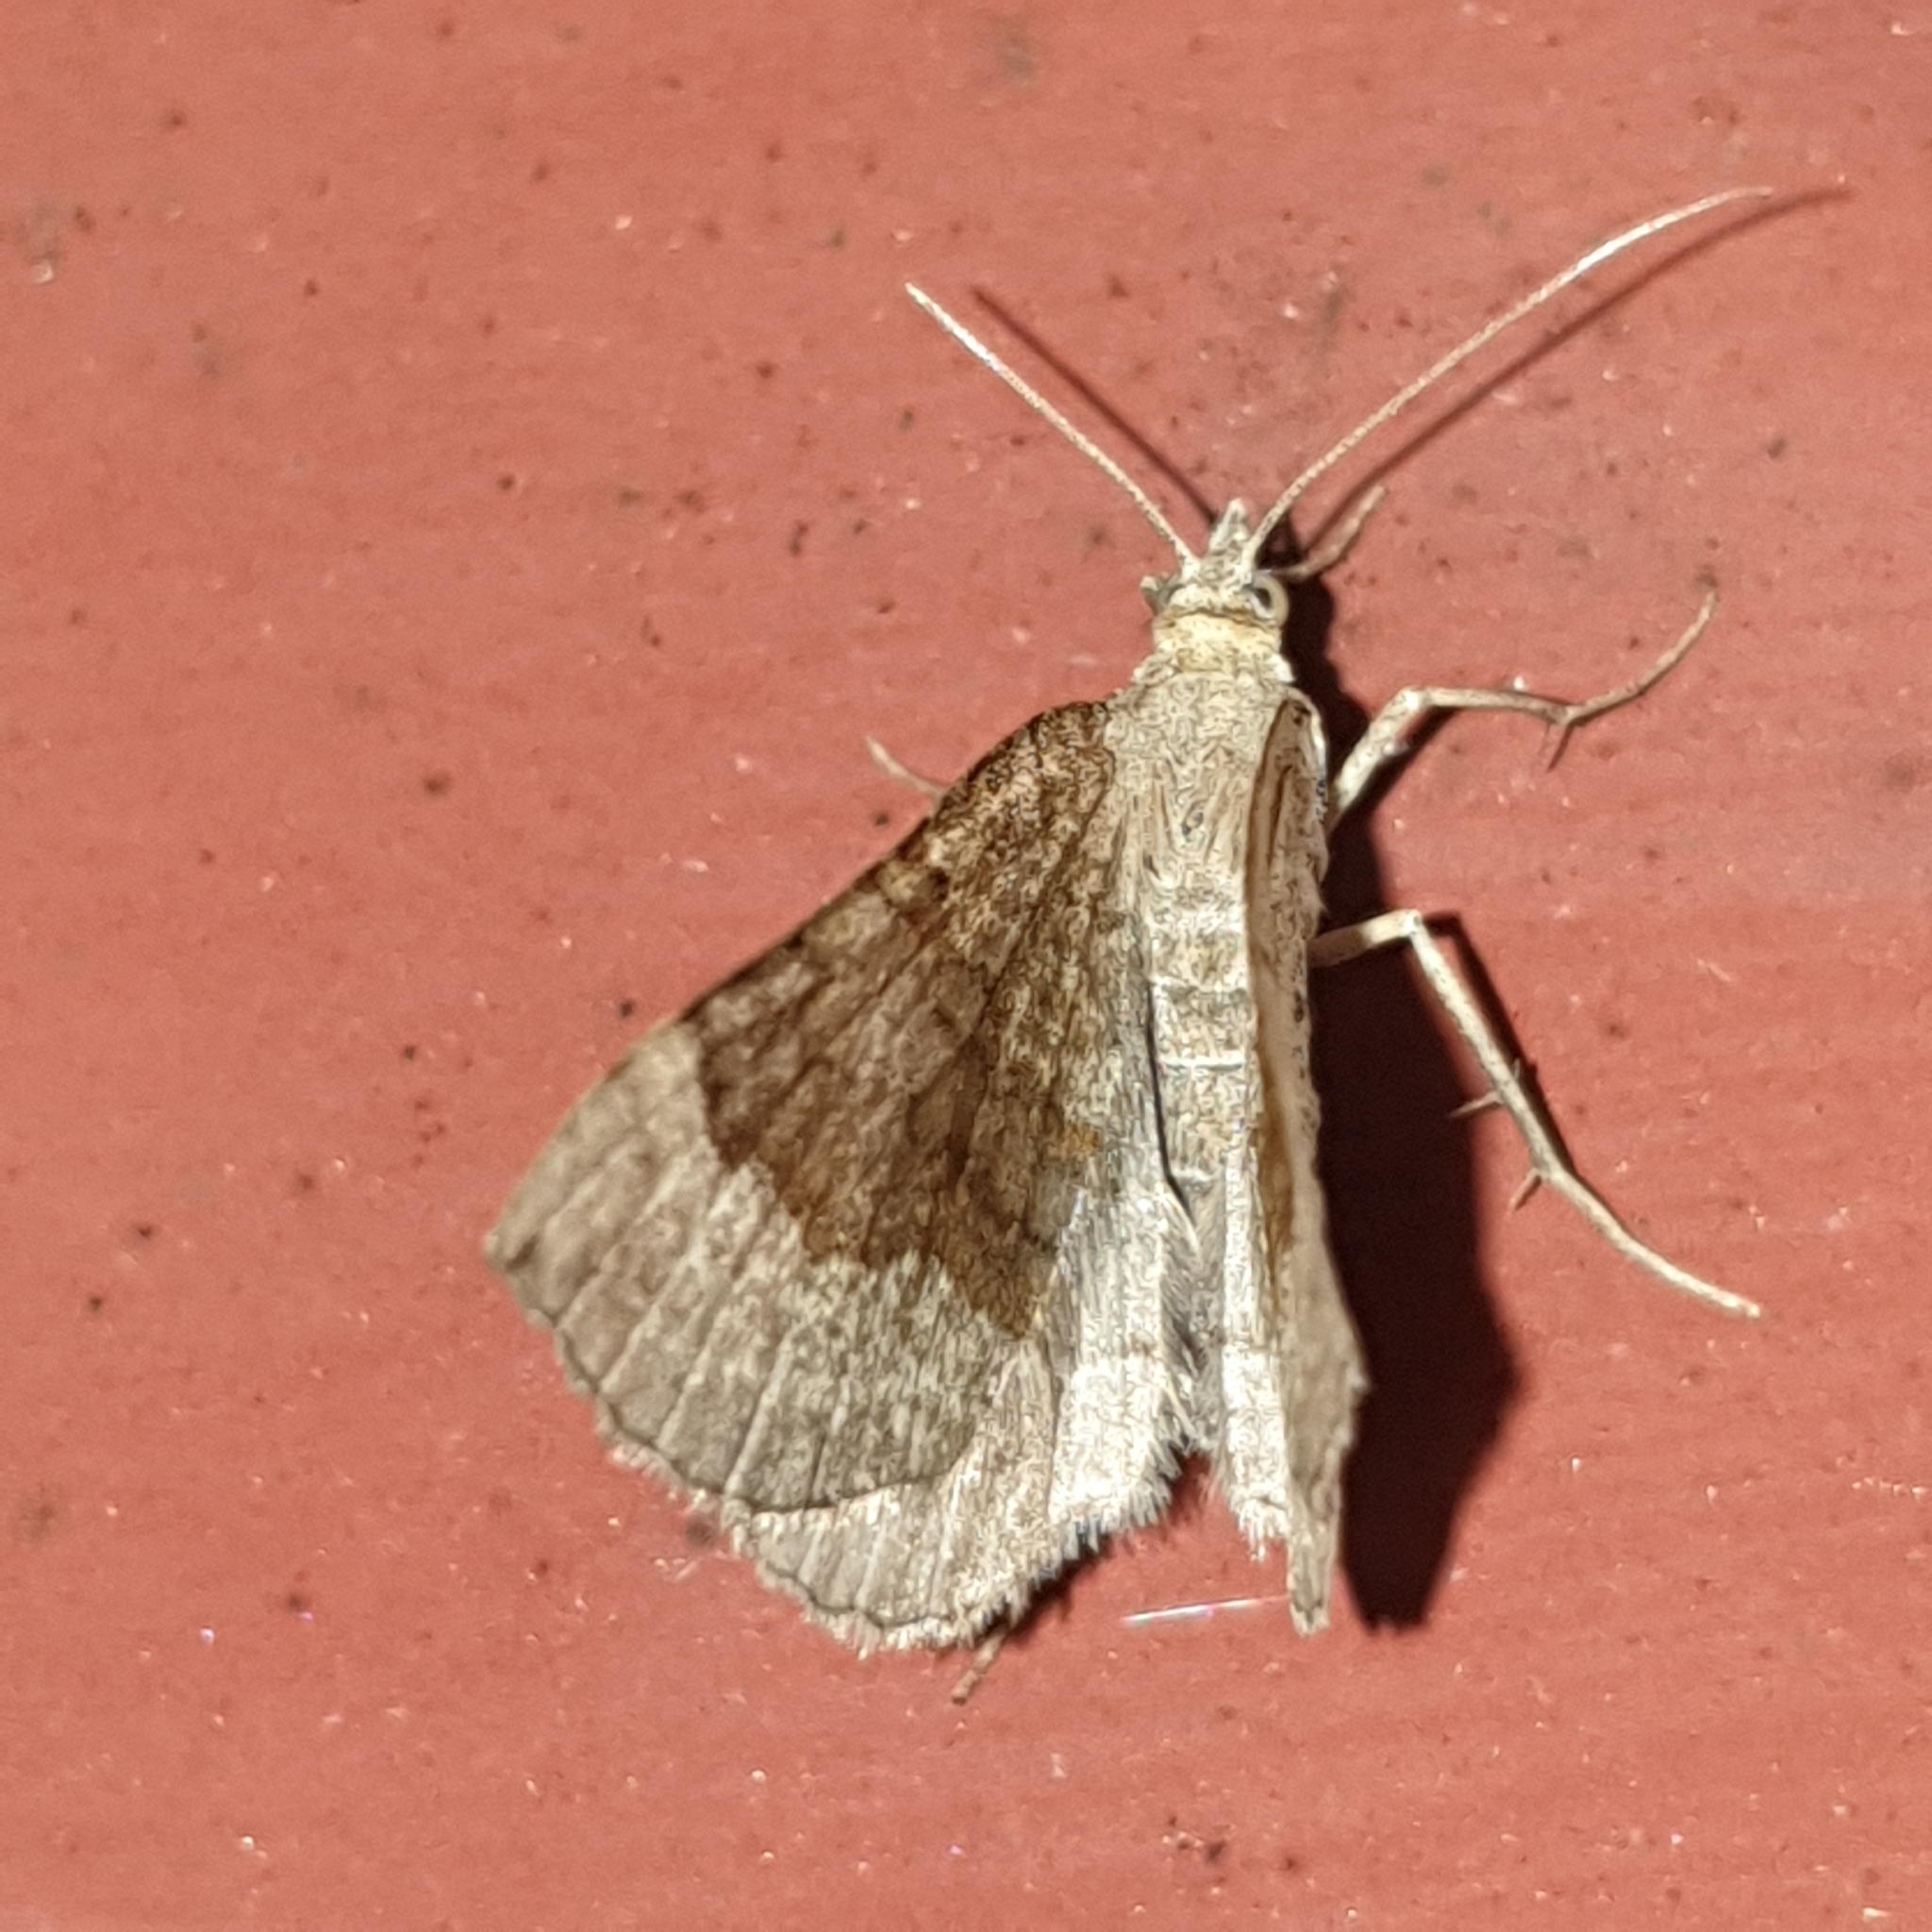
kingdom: Animalia
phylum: Arthropoda
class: Insecta
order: Lepidoptera
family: Geometridae
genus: Scotopteryx
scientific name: Scotopteryx chenopodiata
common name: Shaded broad-bar
